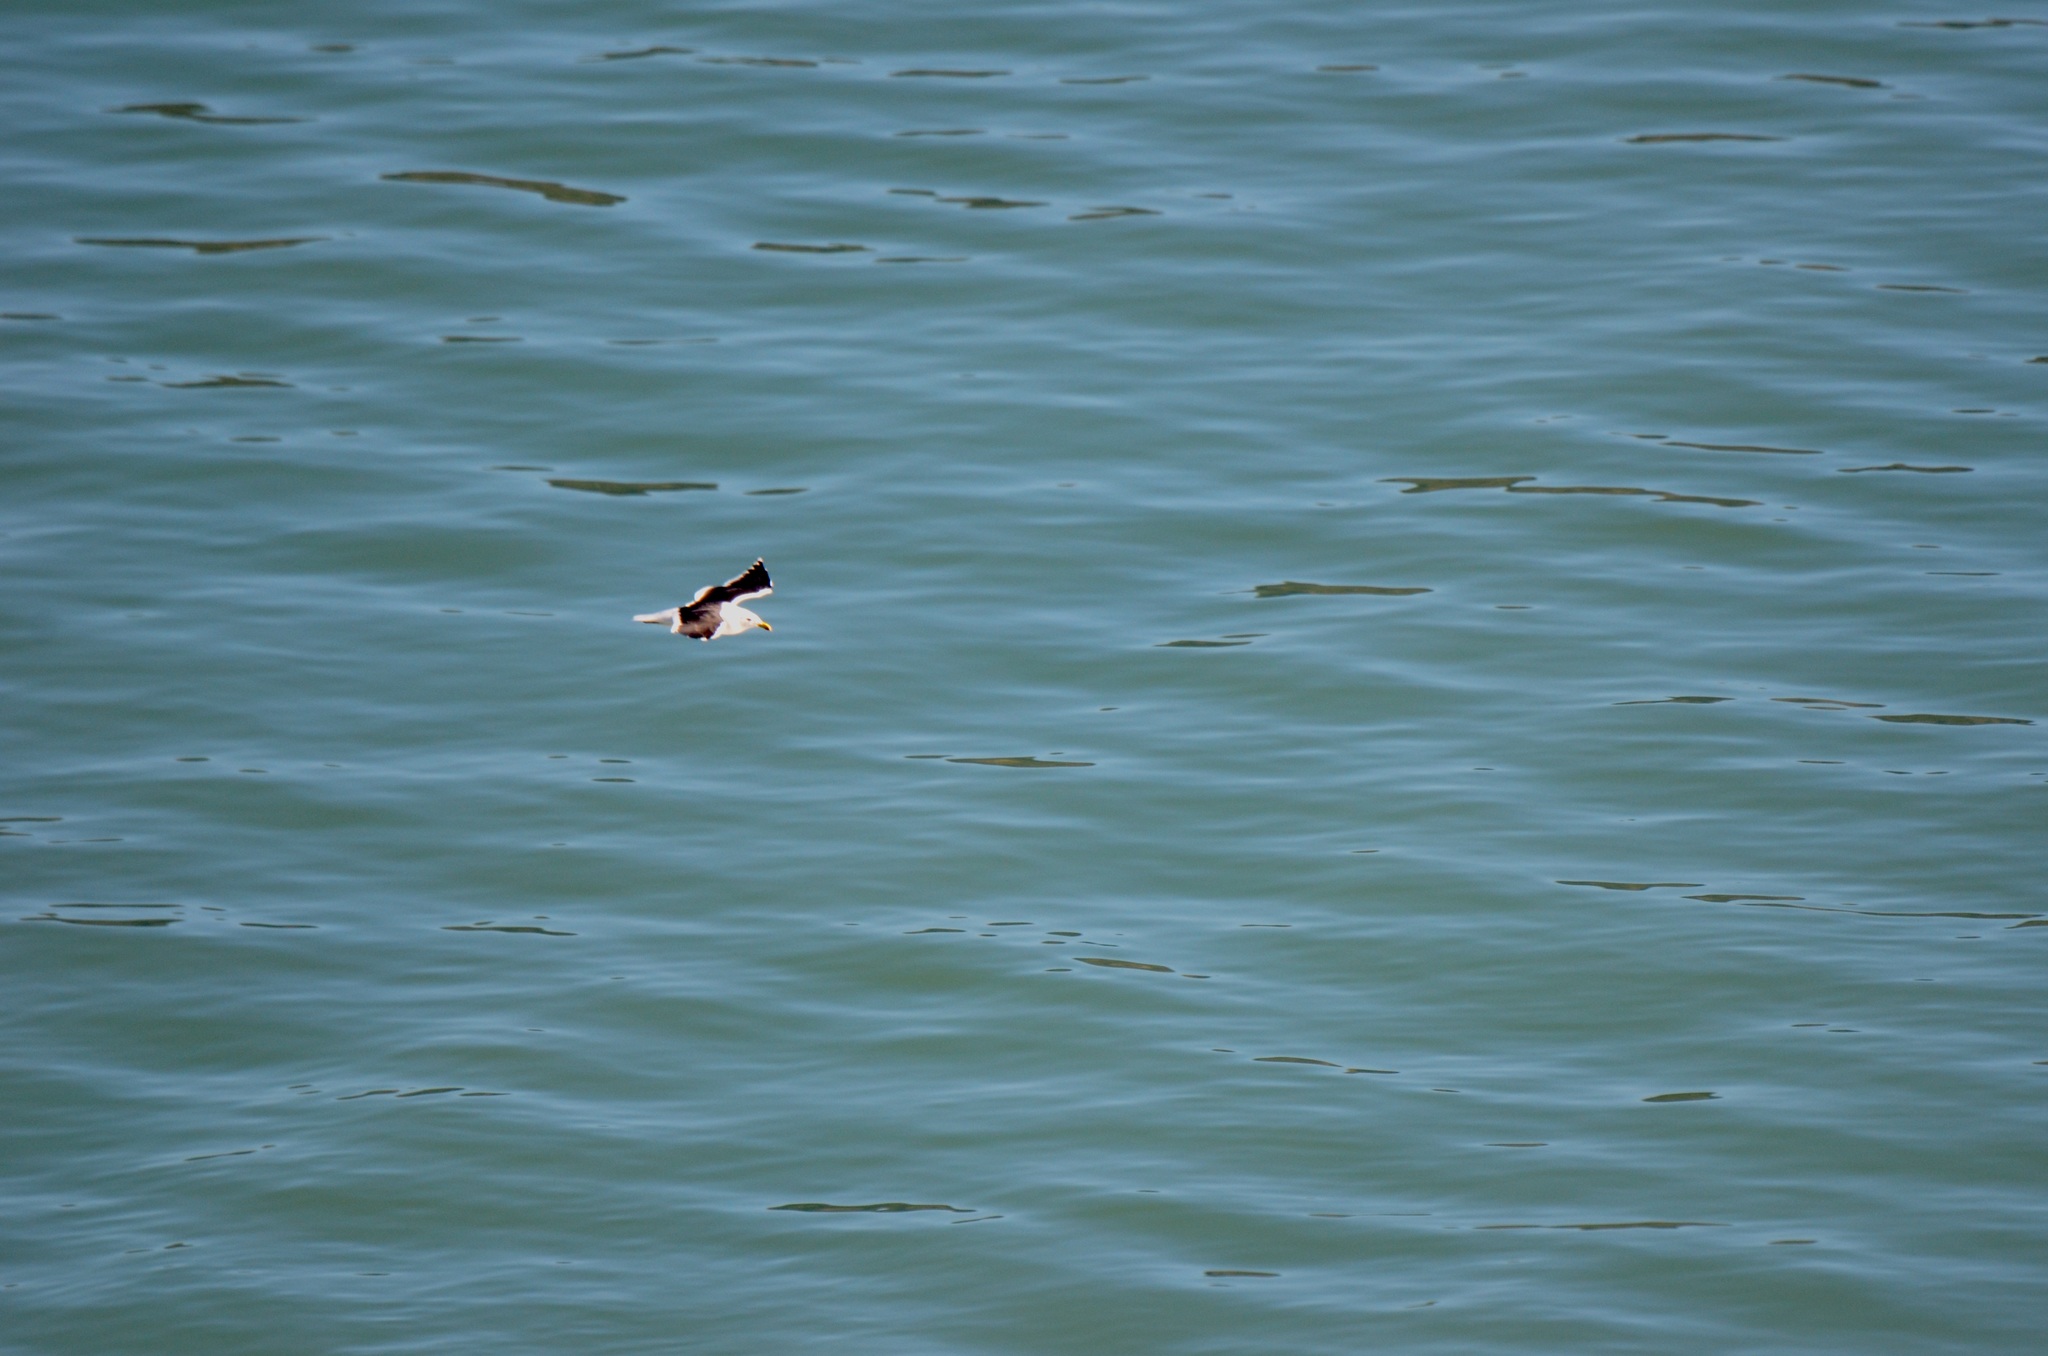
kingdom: Animalia
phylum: Chordata
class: Aves
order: Charadriiformes
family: Laridae
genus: Larus
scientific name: Larus dominicanus
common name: Kelp gull
